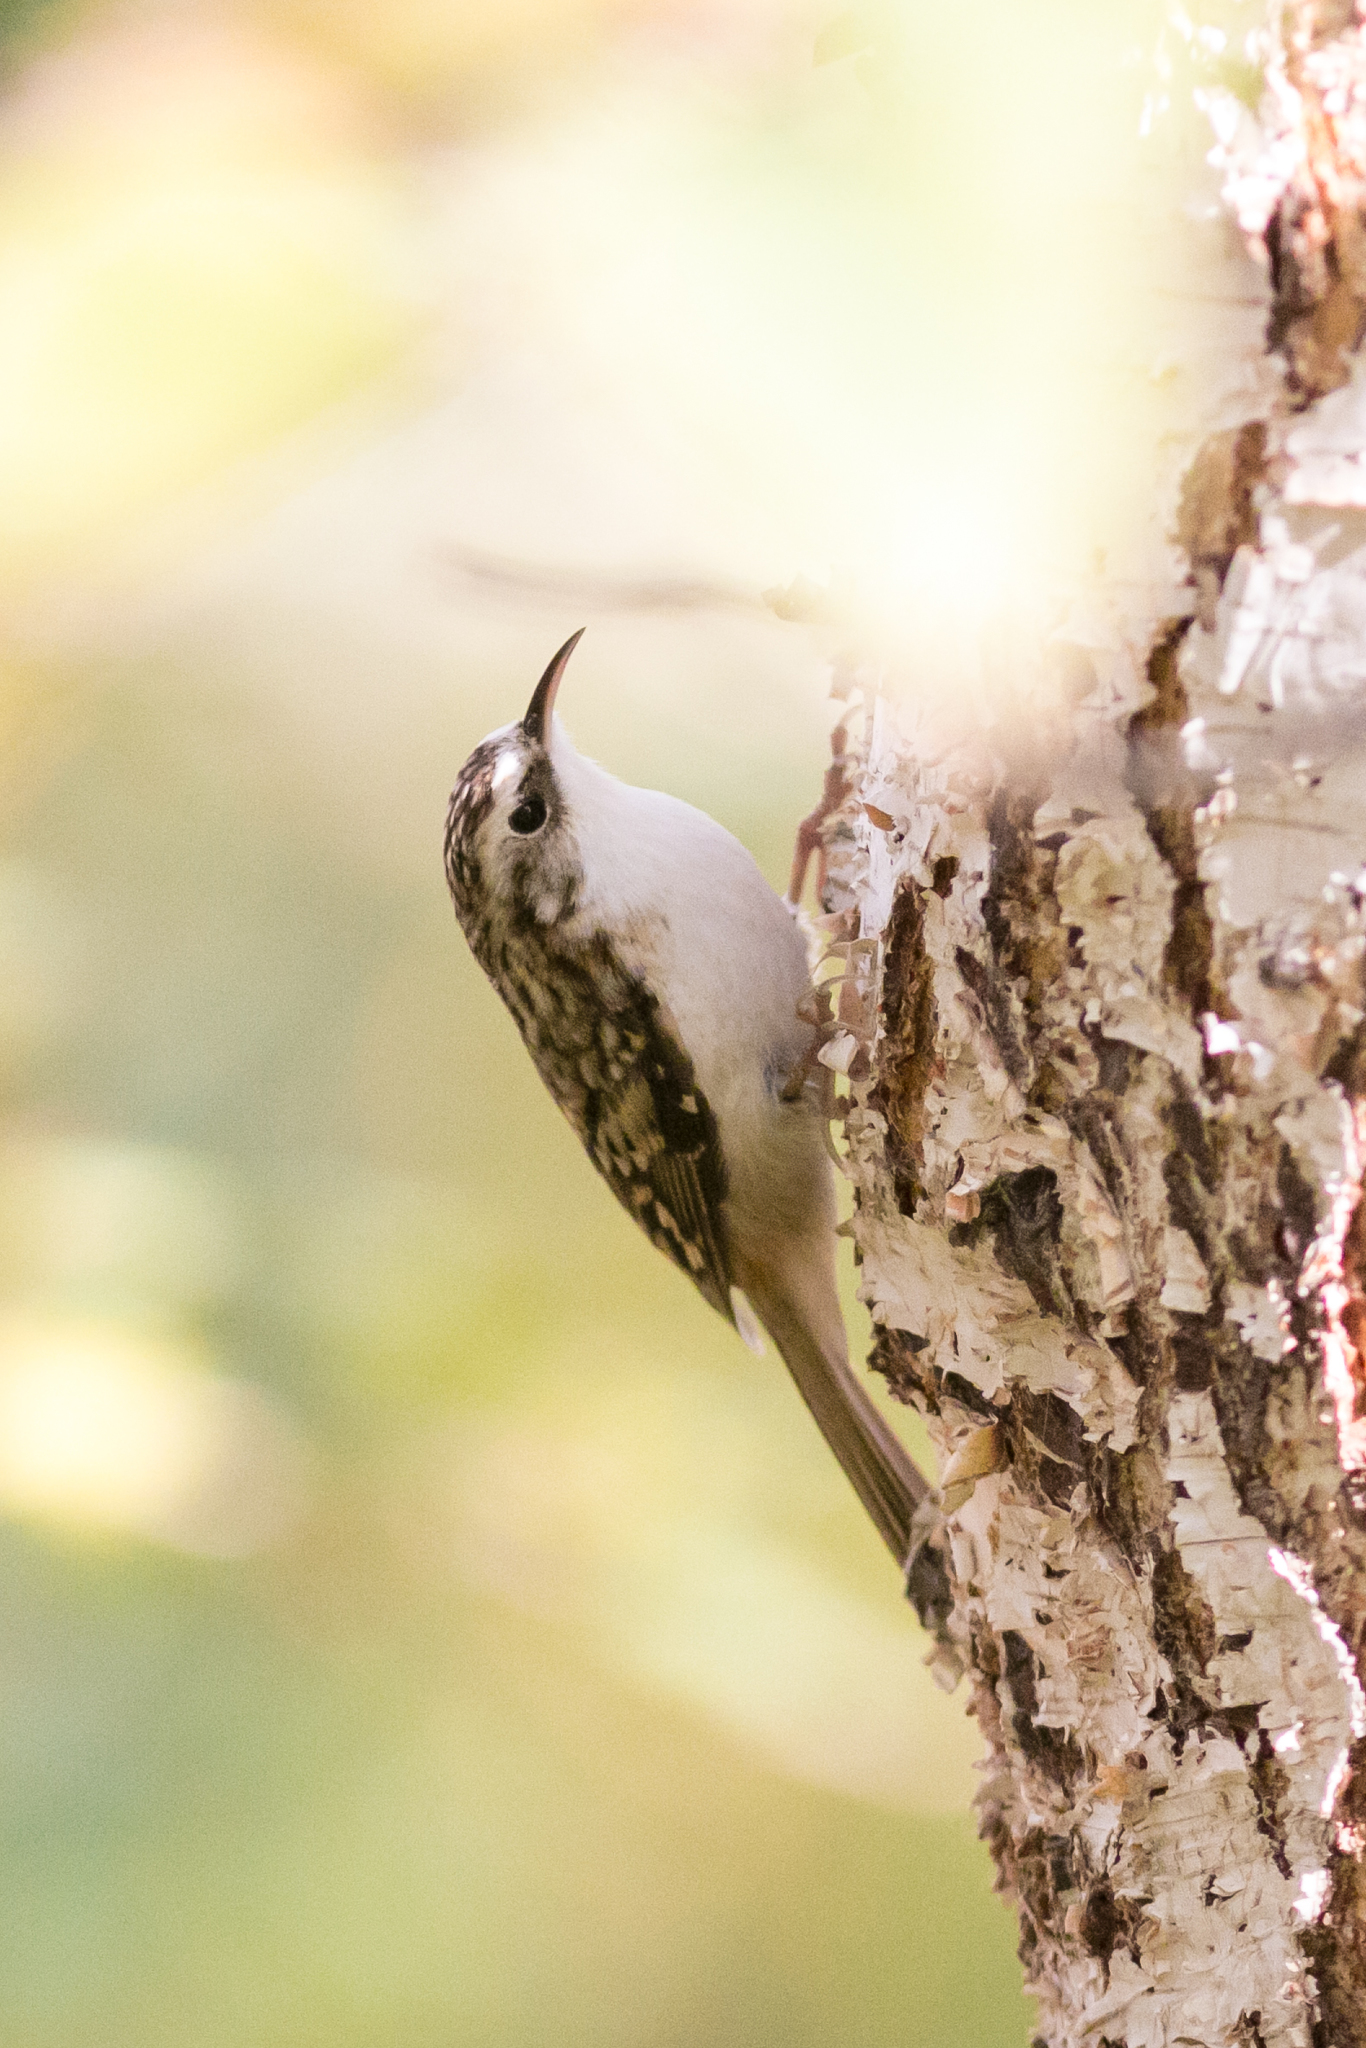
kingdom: Animalia
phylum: Chordata
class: Aves
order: Passeriformes
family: Certhiidae
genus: Certhia
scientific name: Certhia familiaris
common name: Eurasian treecreeper
